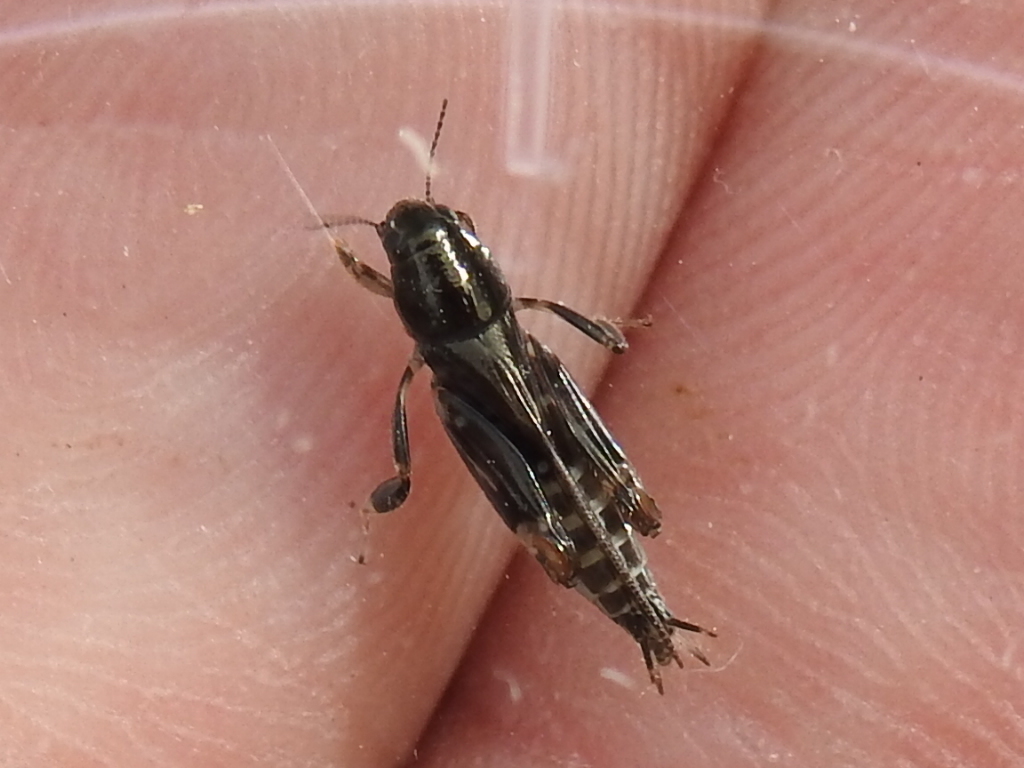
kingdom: Animalia
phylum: Arthropoda
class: Insecta
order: Orthoptera
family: Tridactylidae
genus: Neotridactylus
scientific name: Neotridactylus apicialis
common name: Larger pygmy locust
